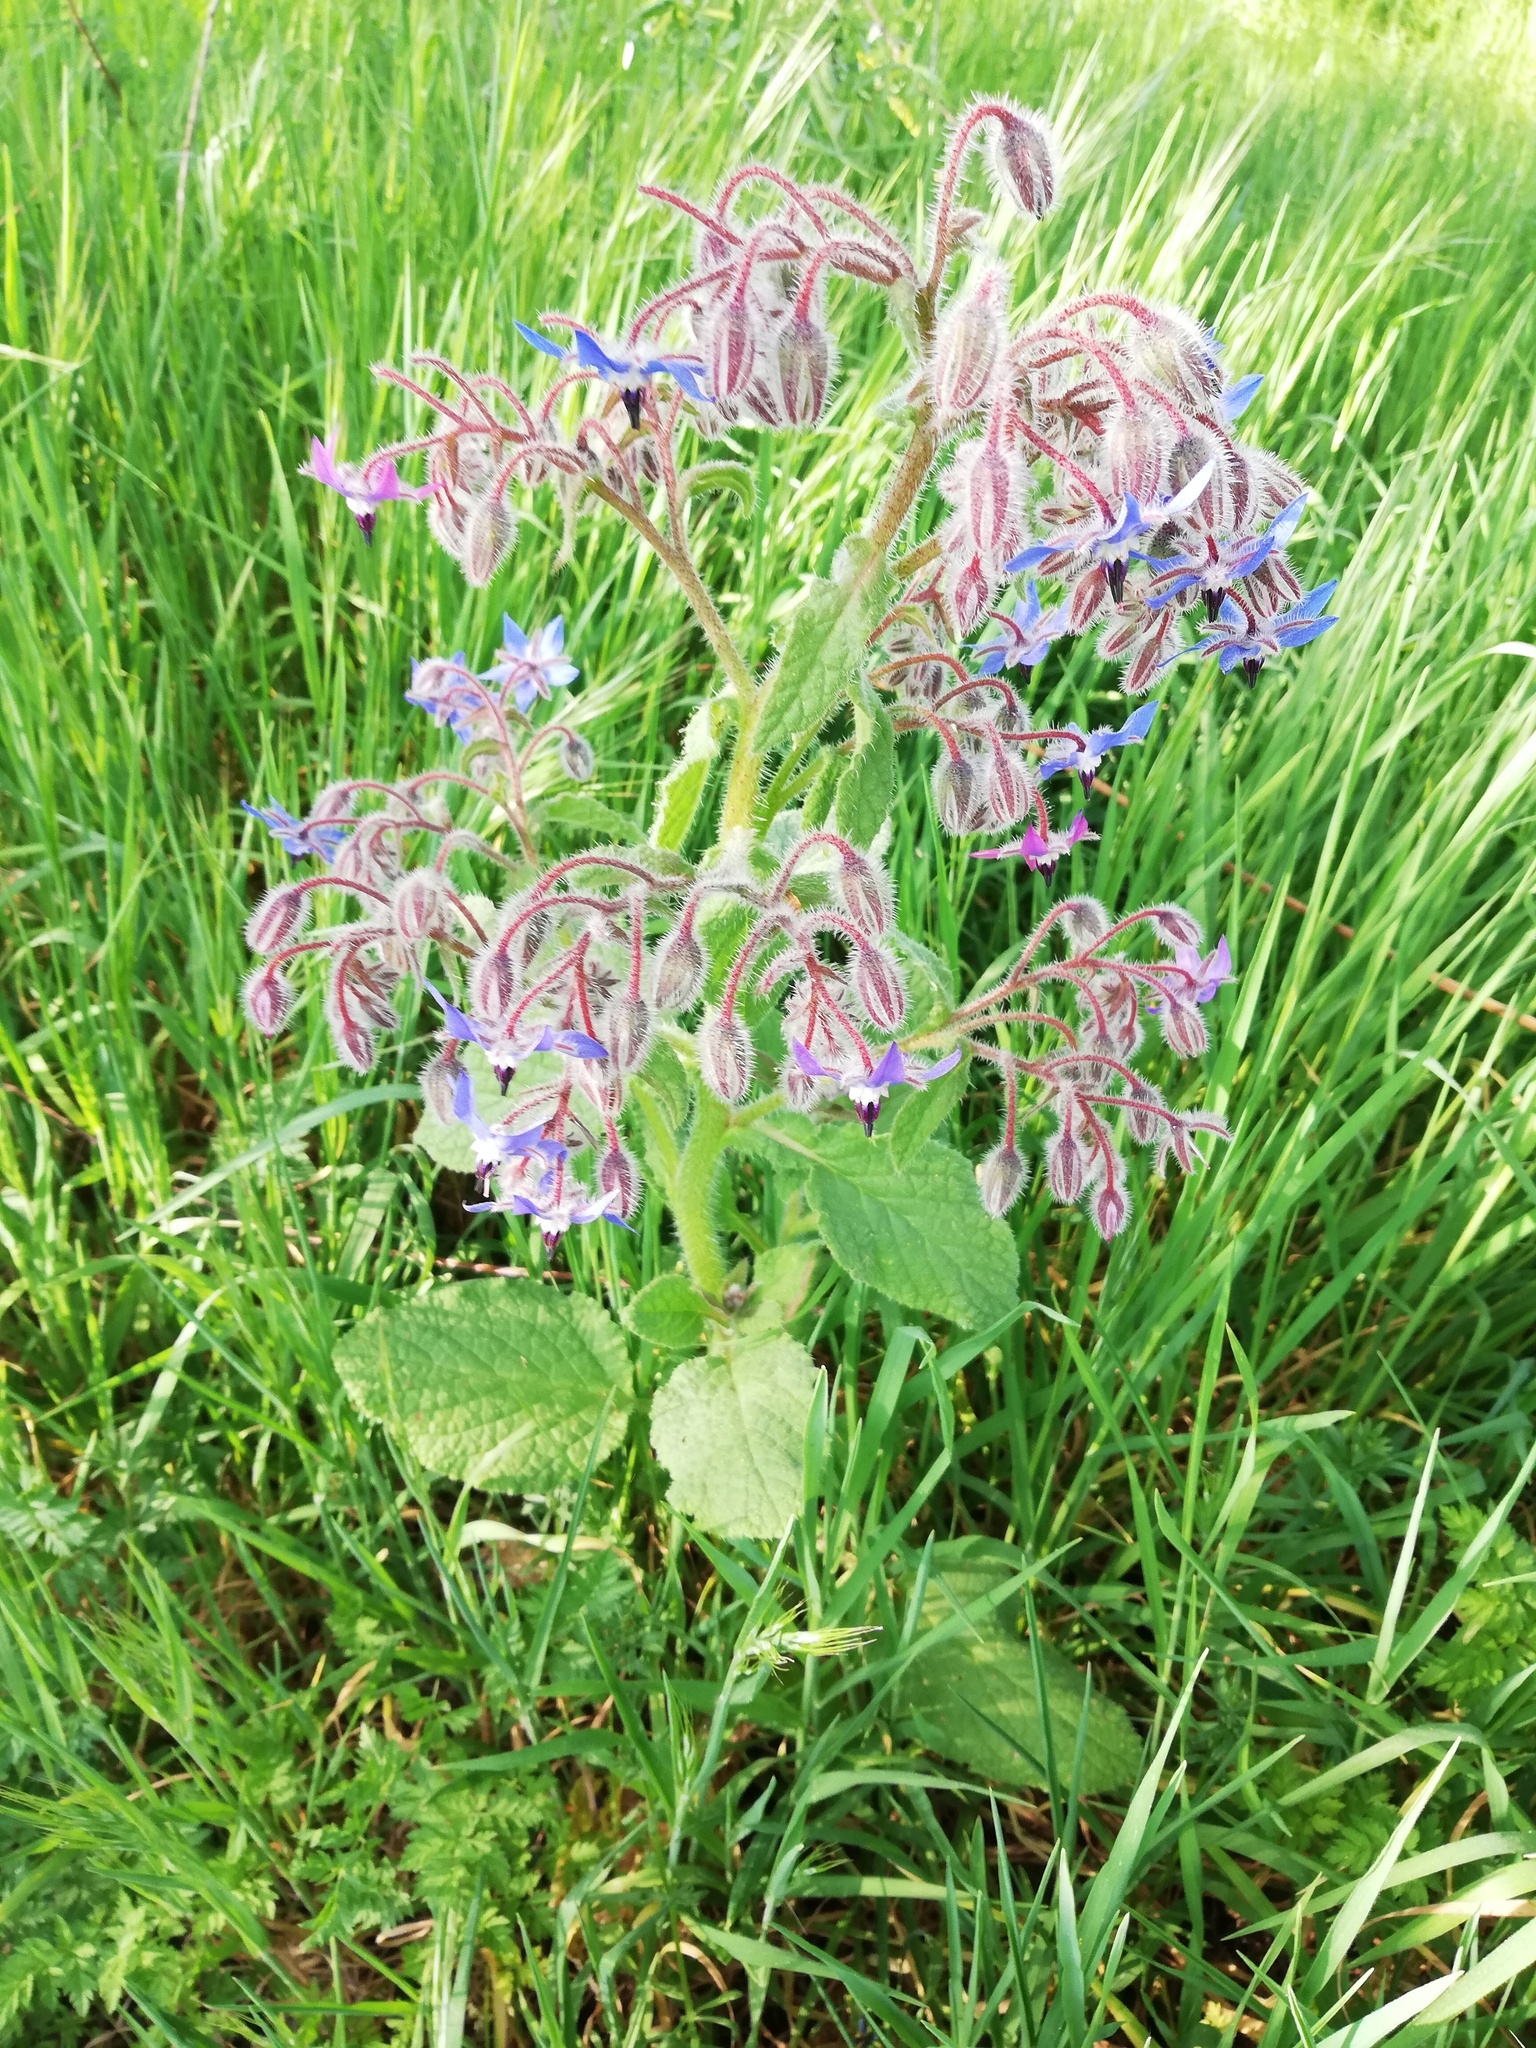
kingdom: Plantae
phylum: Tracheophyta
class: Magnoliopsida
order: Boraginales
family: Boraginaceae
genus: Borago
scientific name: Borago officinalis
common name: Borage
